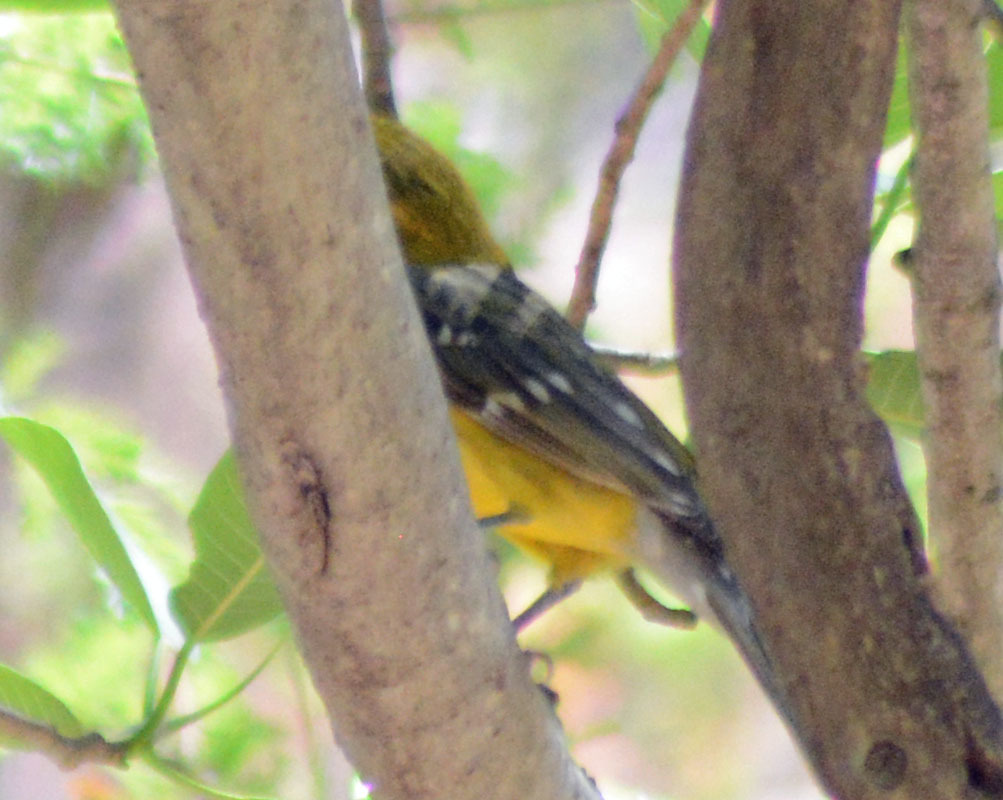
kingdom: Animalia
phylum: Chordata
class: Aves
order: Passeriformes
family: Cardinalidae
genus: Pheucticus
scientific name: Pheucticus chrysopeplus
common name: Yellow grosbeak
